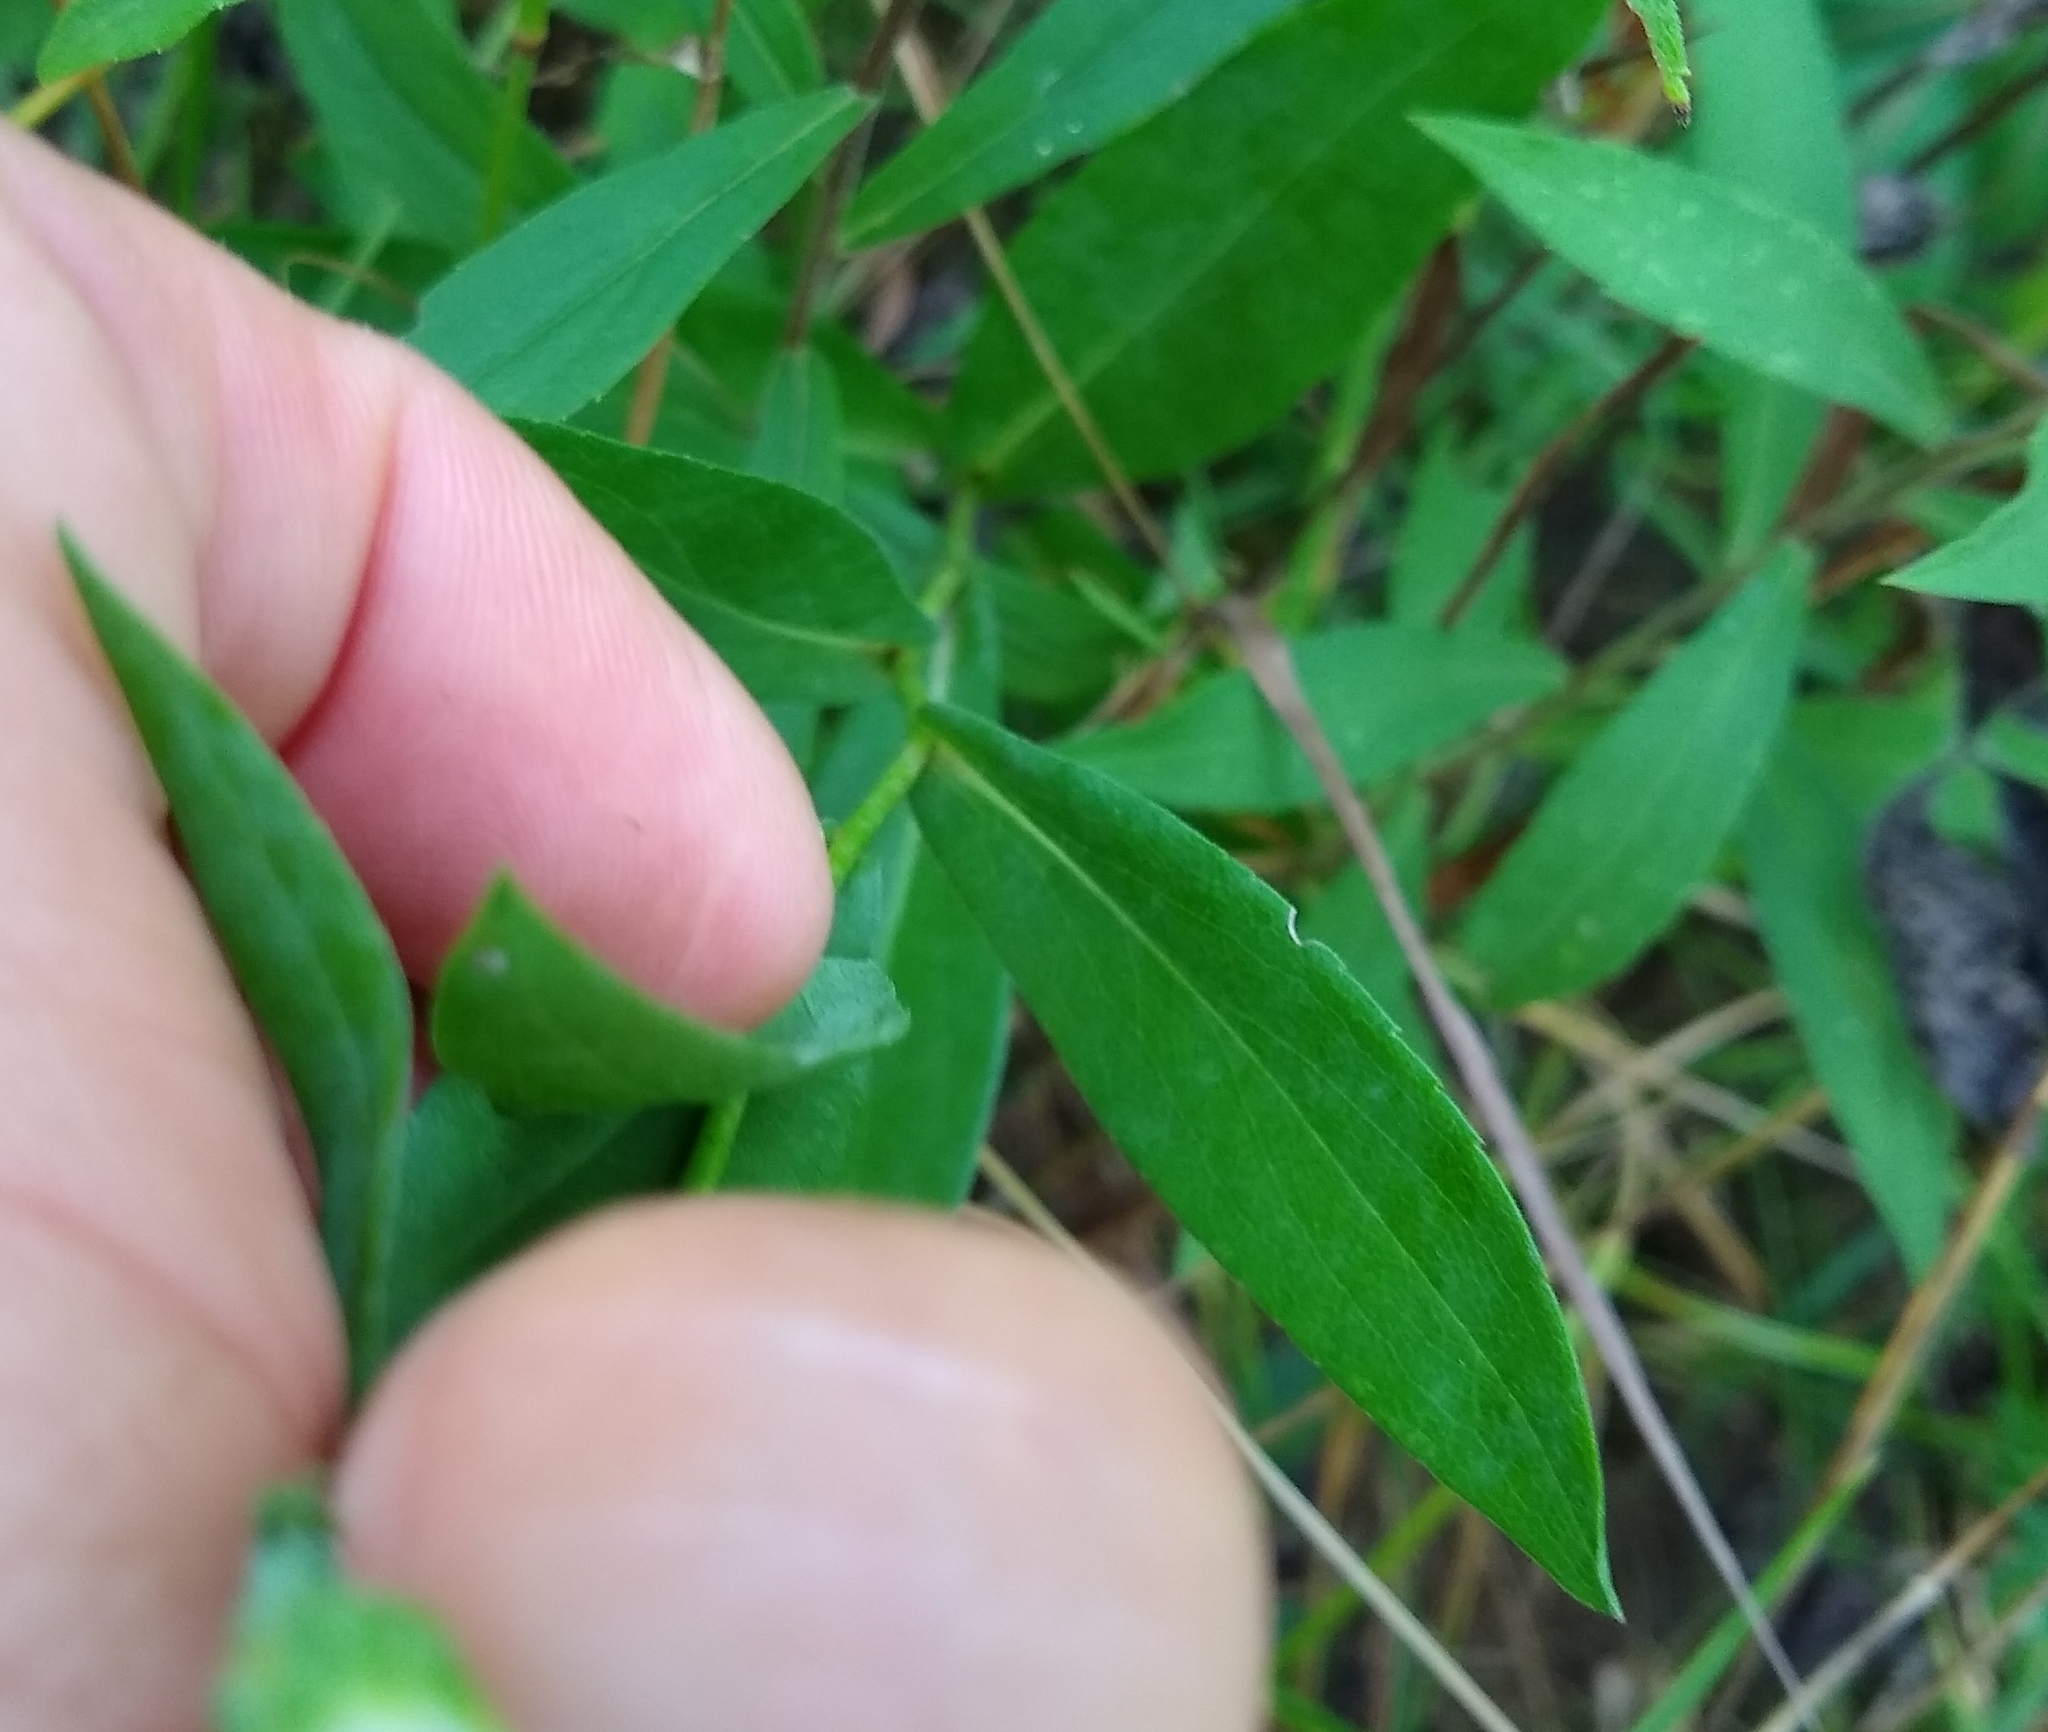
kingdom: Plantae
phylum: Tracheophyta
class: Magnoliopsida
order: Asterales
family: Asteraceae
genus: Symphyotrichum
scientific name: Symphyotrichum laeve
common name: Glaucous aster
